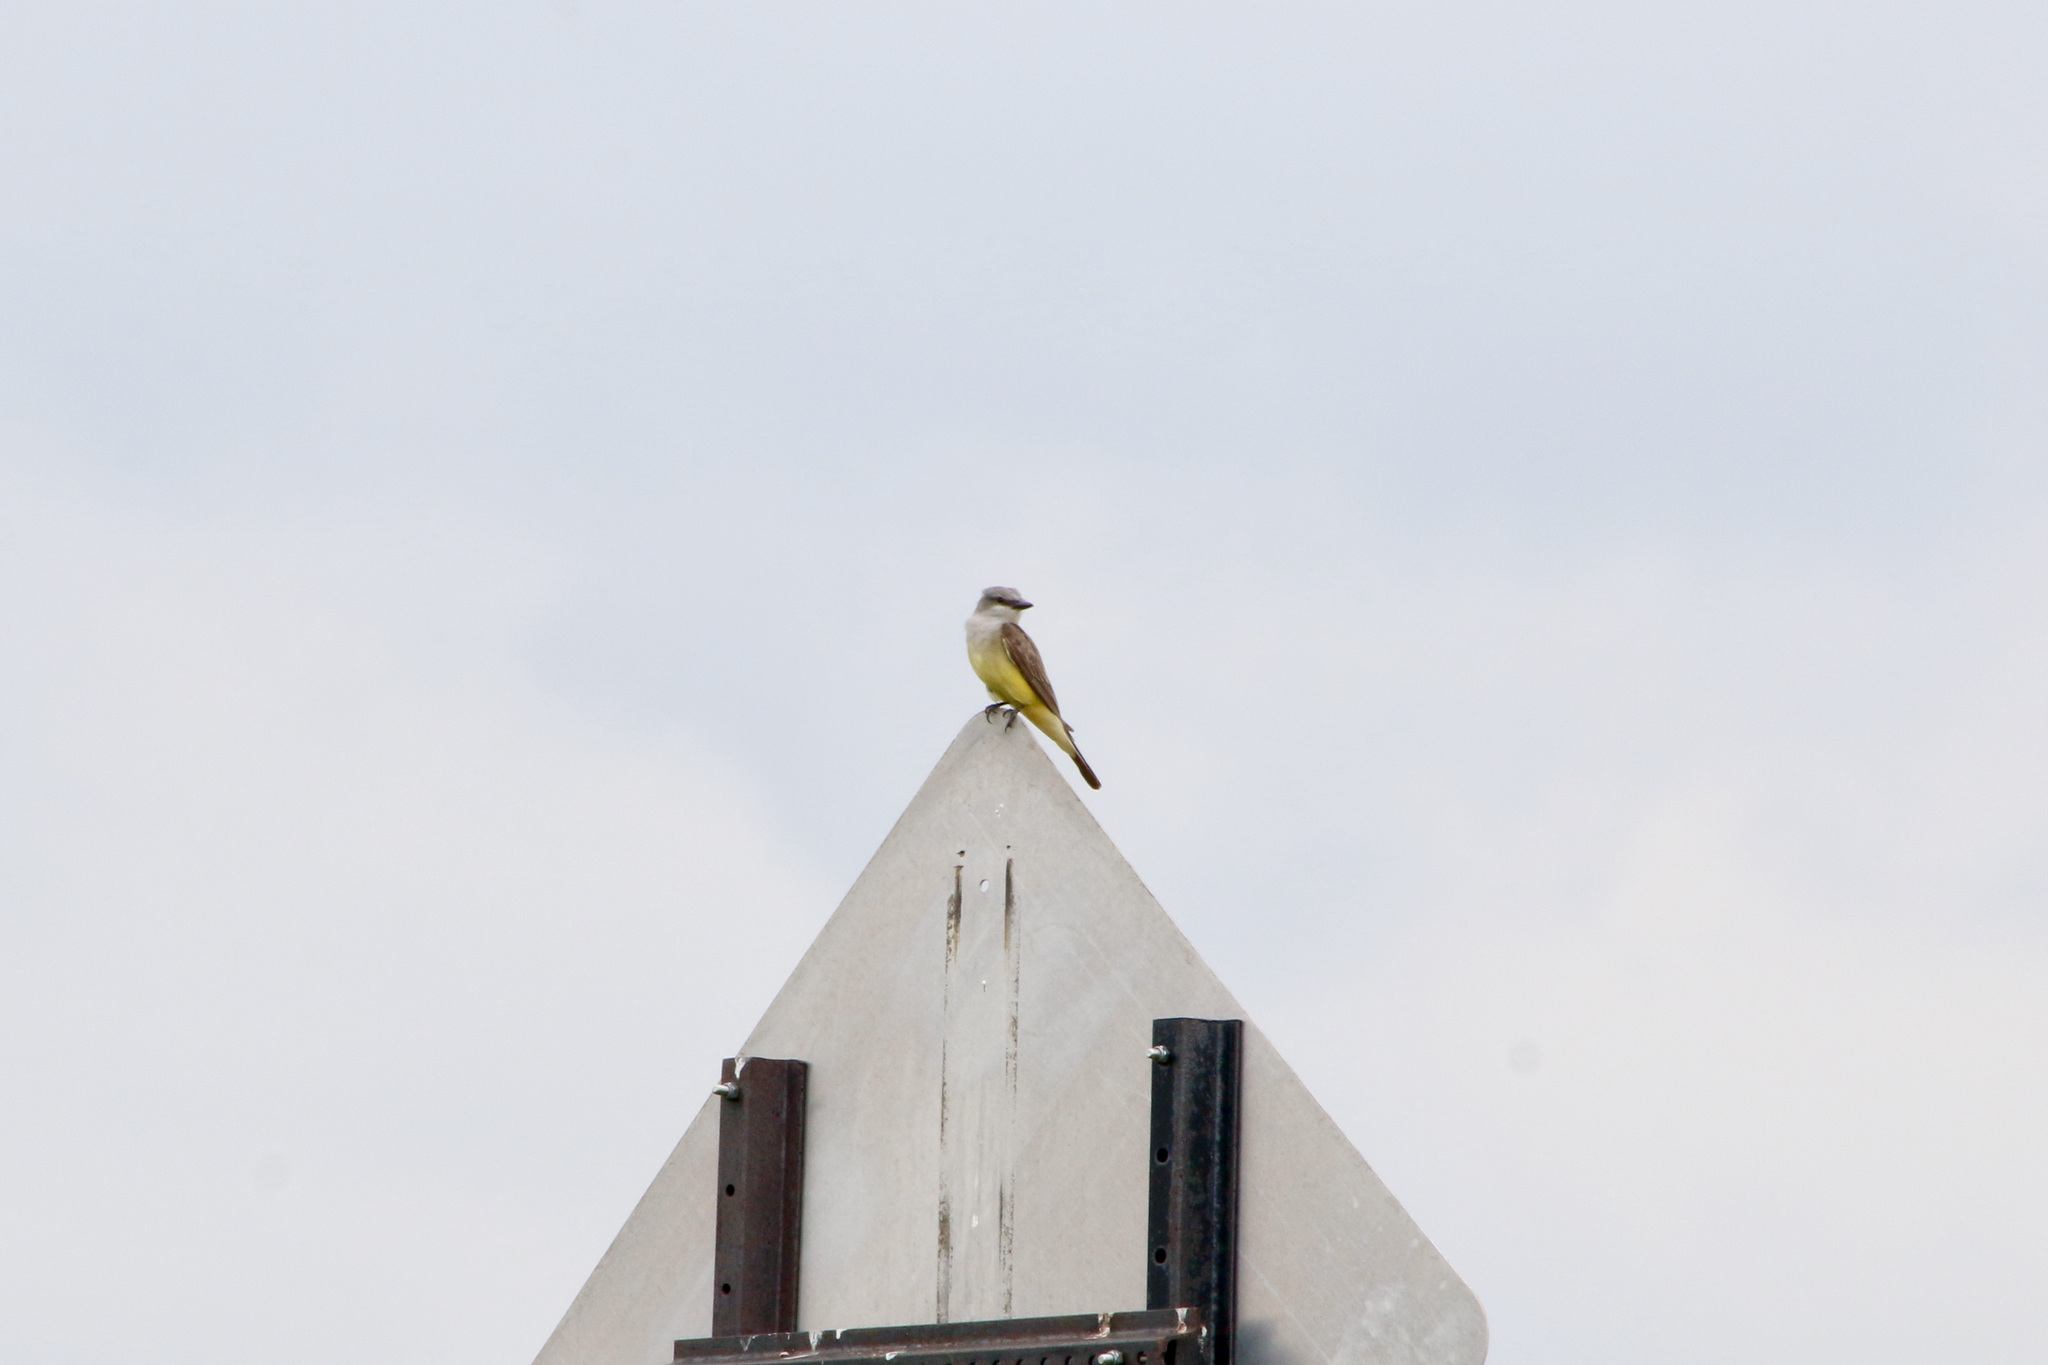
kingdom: Animalia
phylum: Chordata
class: Aves
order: Passeriformes
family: Tyrannidae
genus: Tyrannus
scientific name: Tyrannus verticalis
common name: Western kingbird
